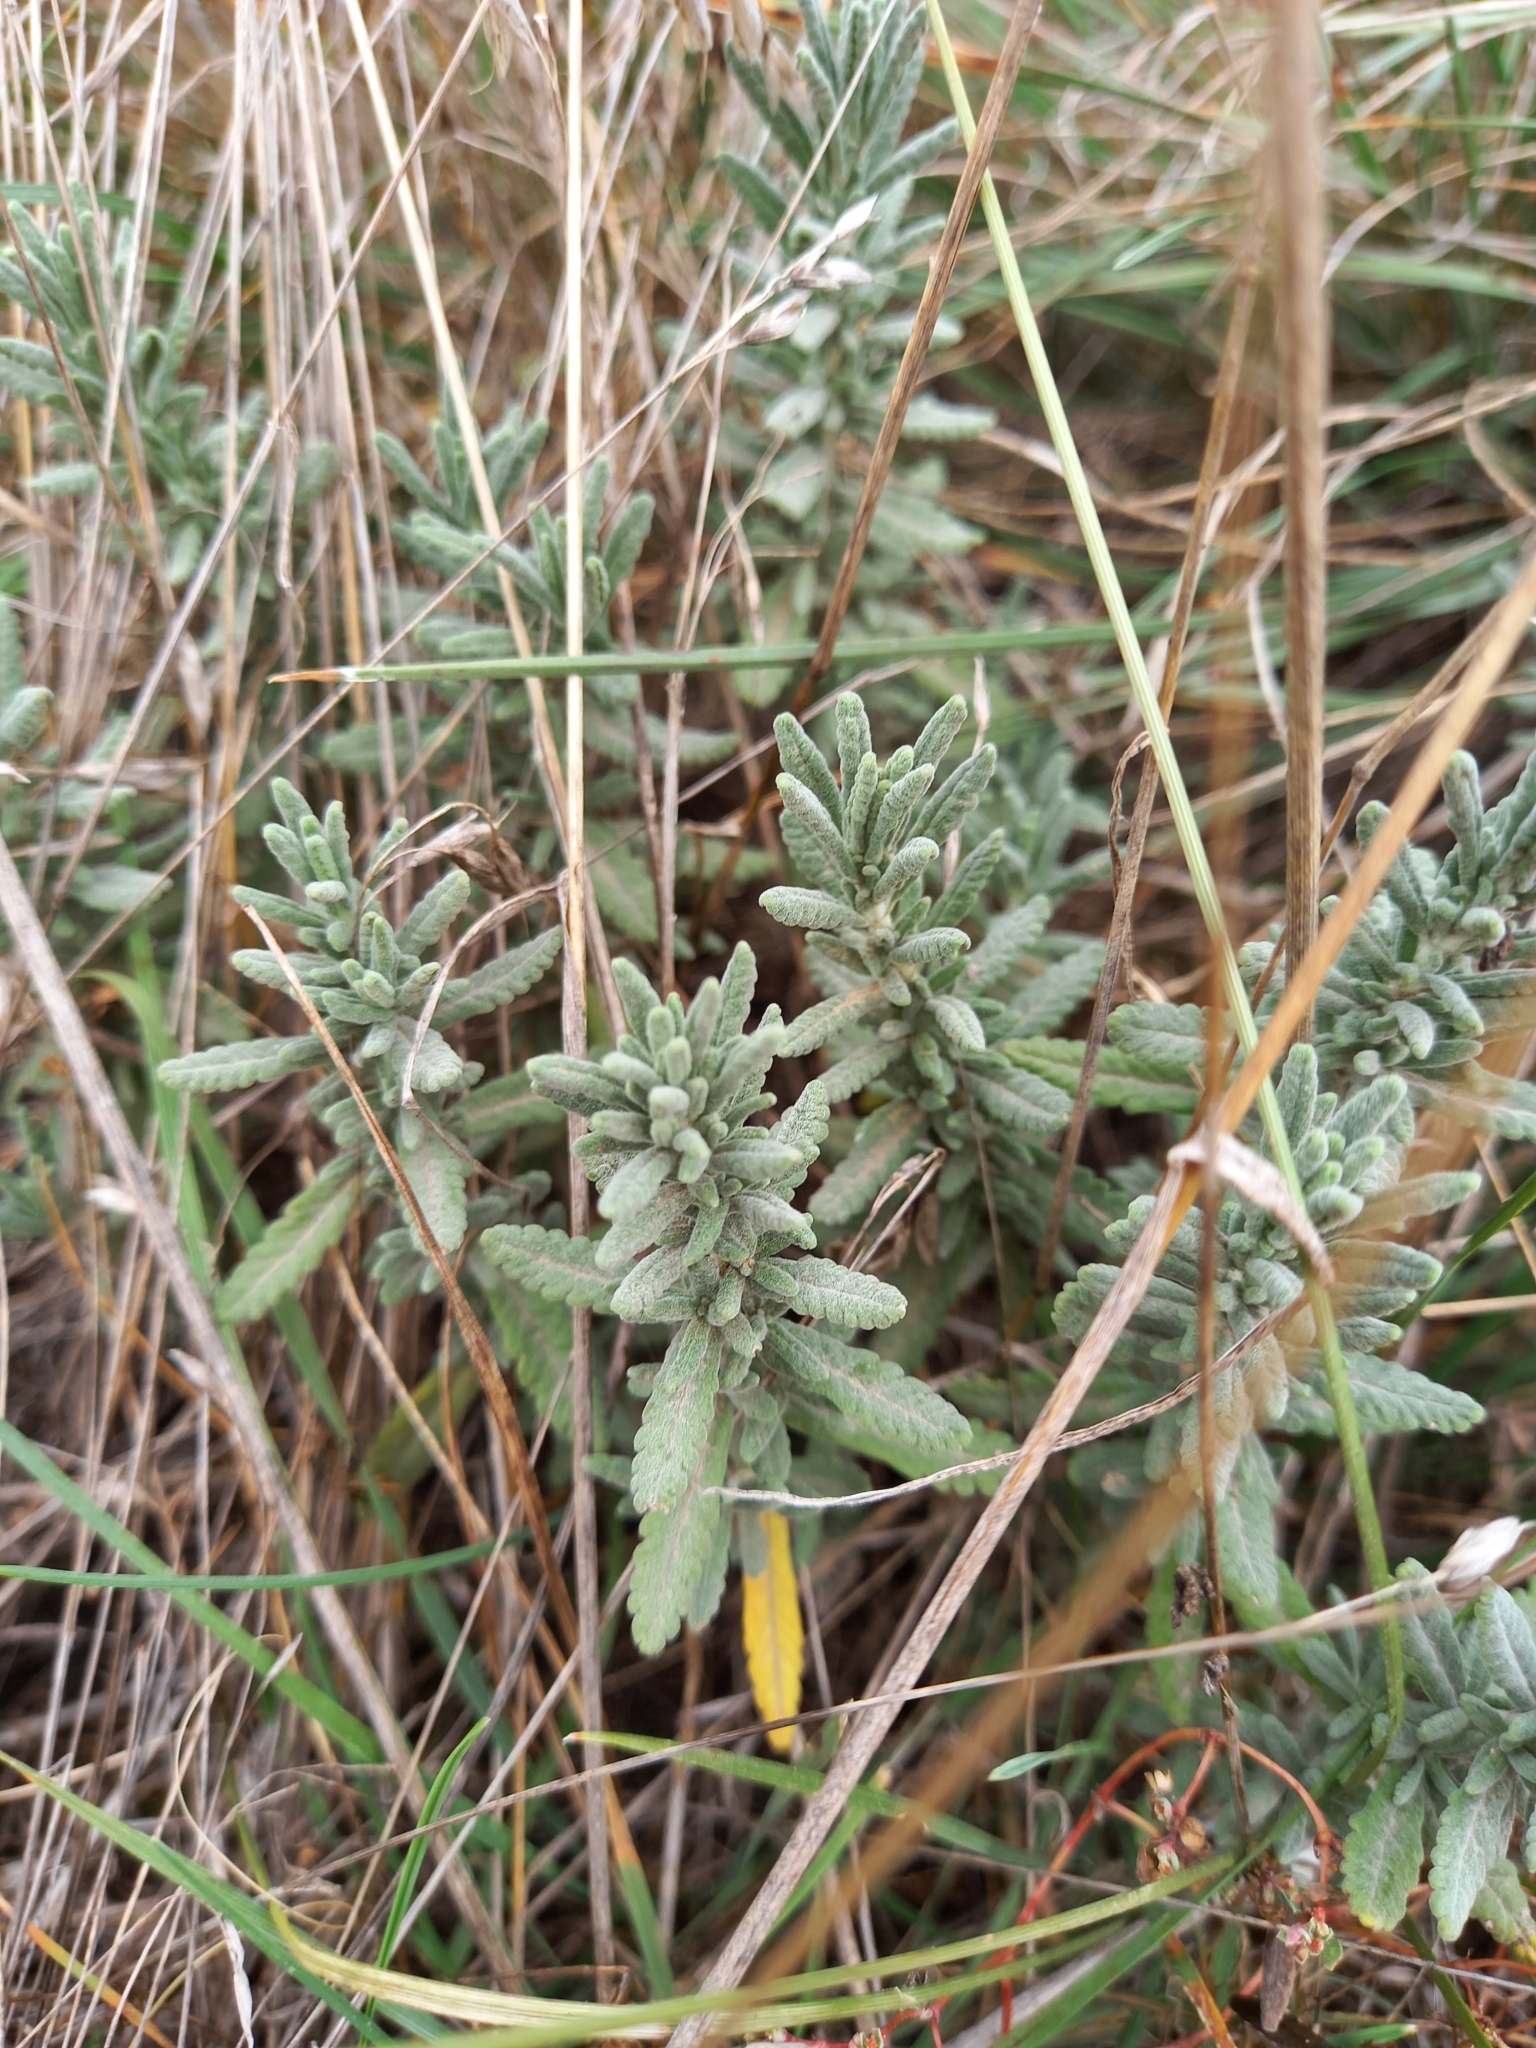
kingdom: Plantae
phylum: Tracheophyta
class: Magnoliopsida
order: Lamiales
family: Lamiaceae
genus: Teucrium
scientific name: Teucrium polium
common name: Poley
